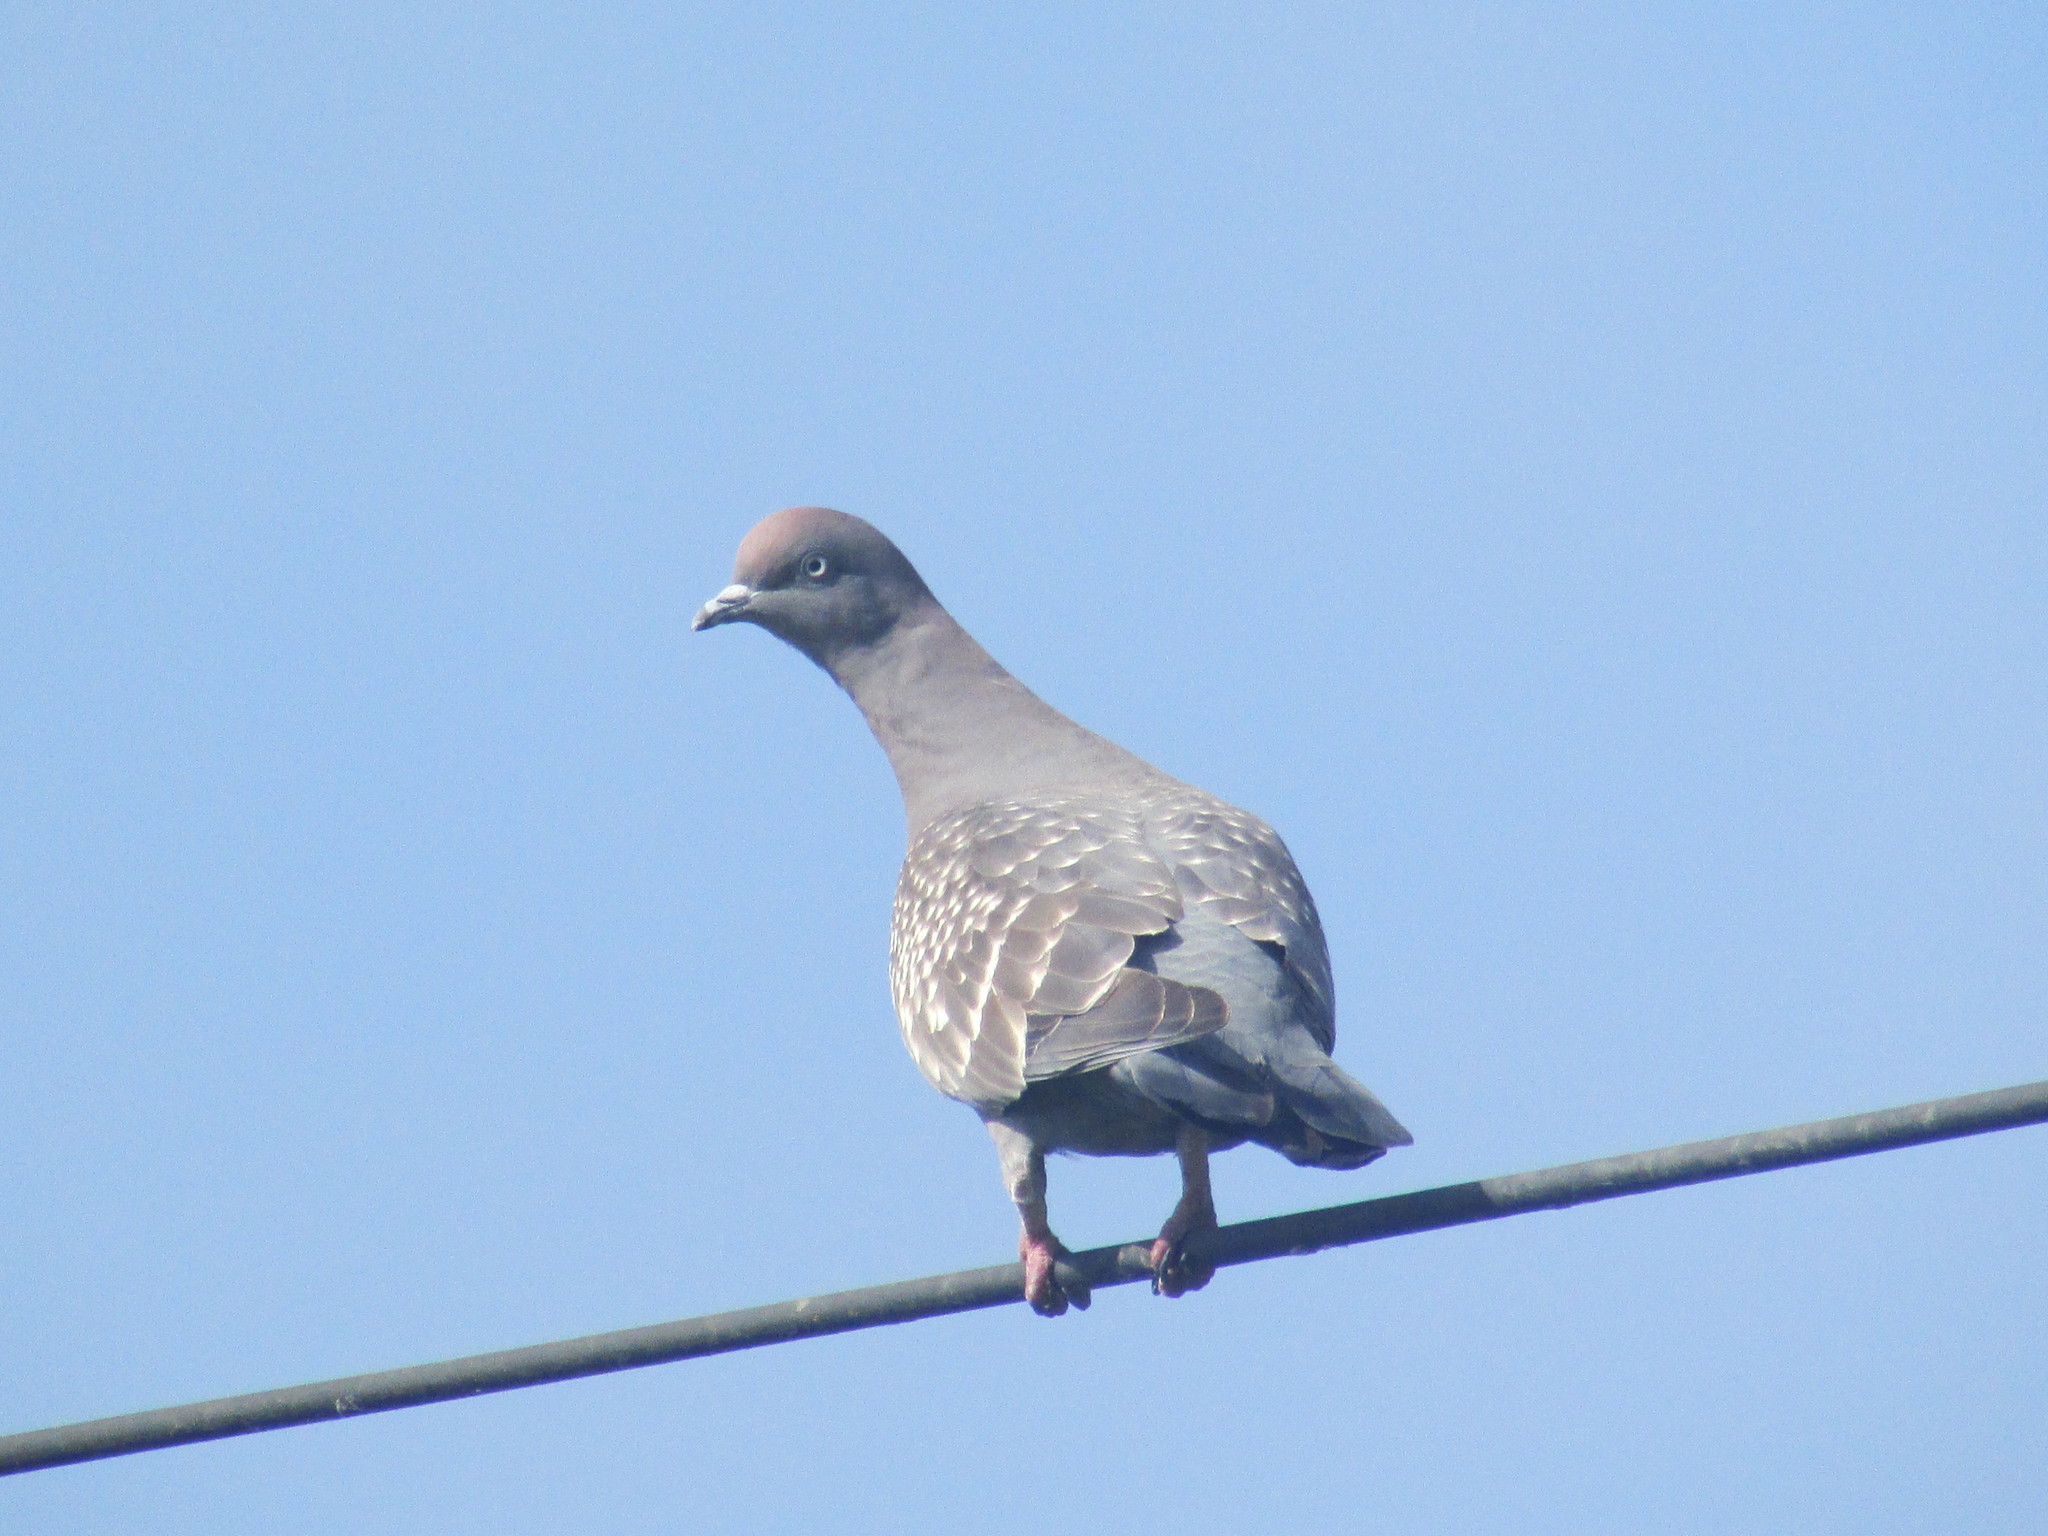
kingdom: Animalia
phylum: Chordata
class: Aves
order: Columbiformes
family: Columbidae
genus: Patagioenas
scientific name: Patagioenas maculosa
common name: Spot-winged pigeon
